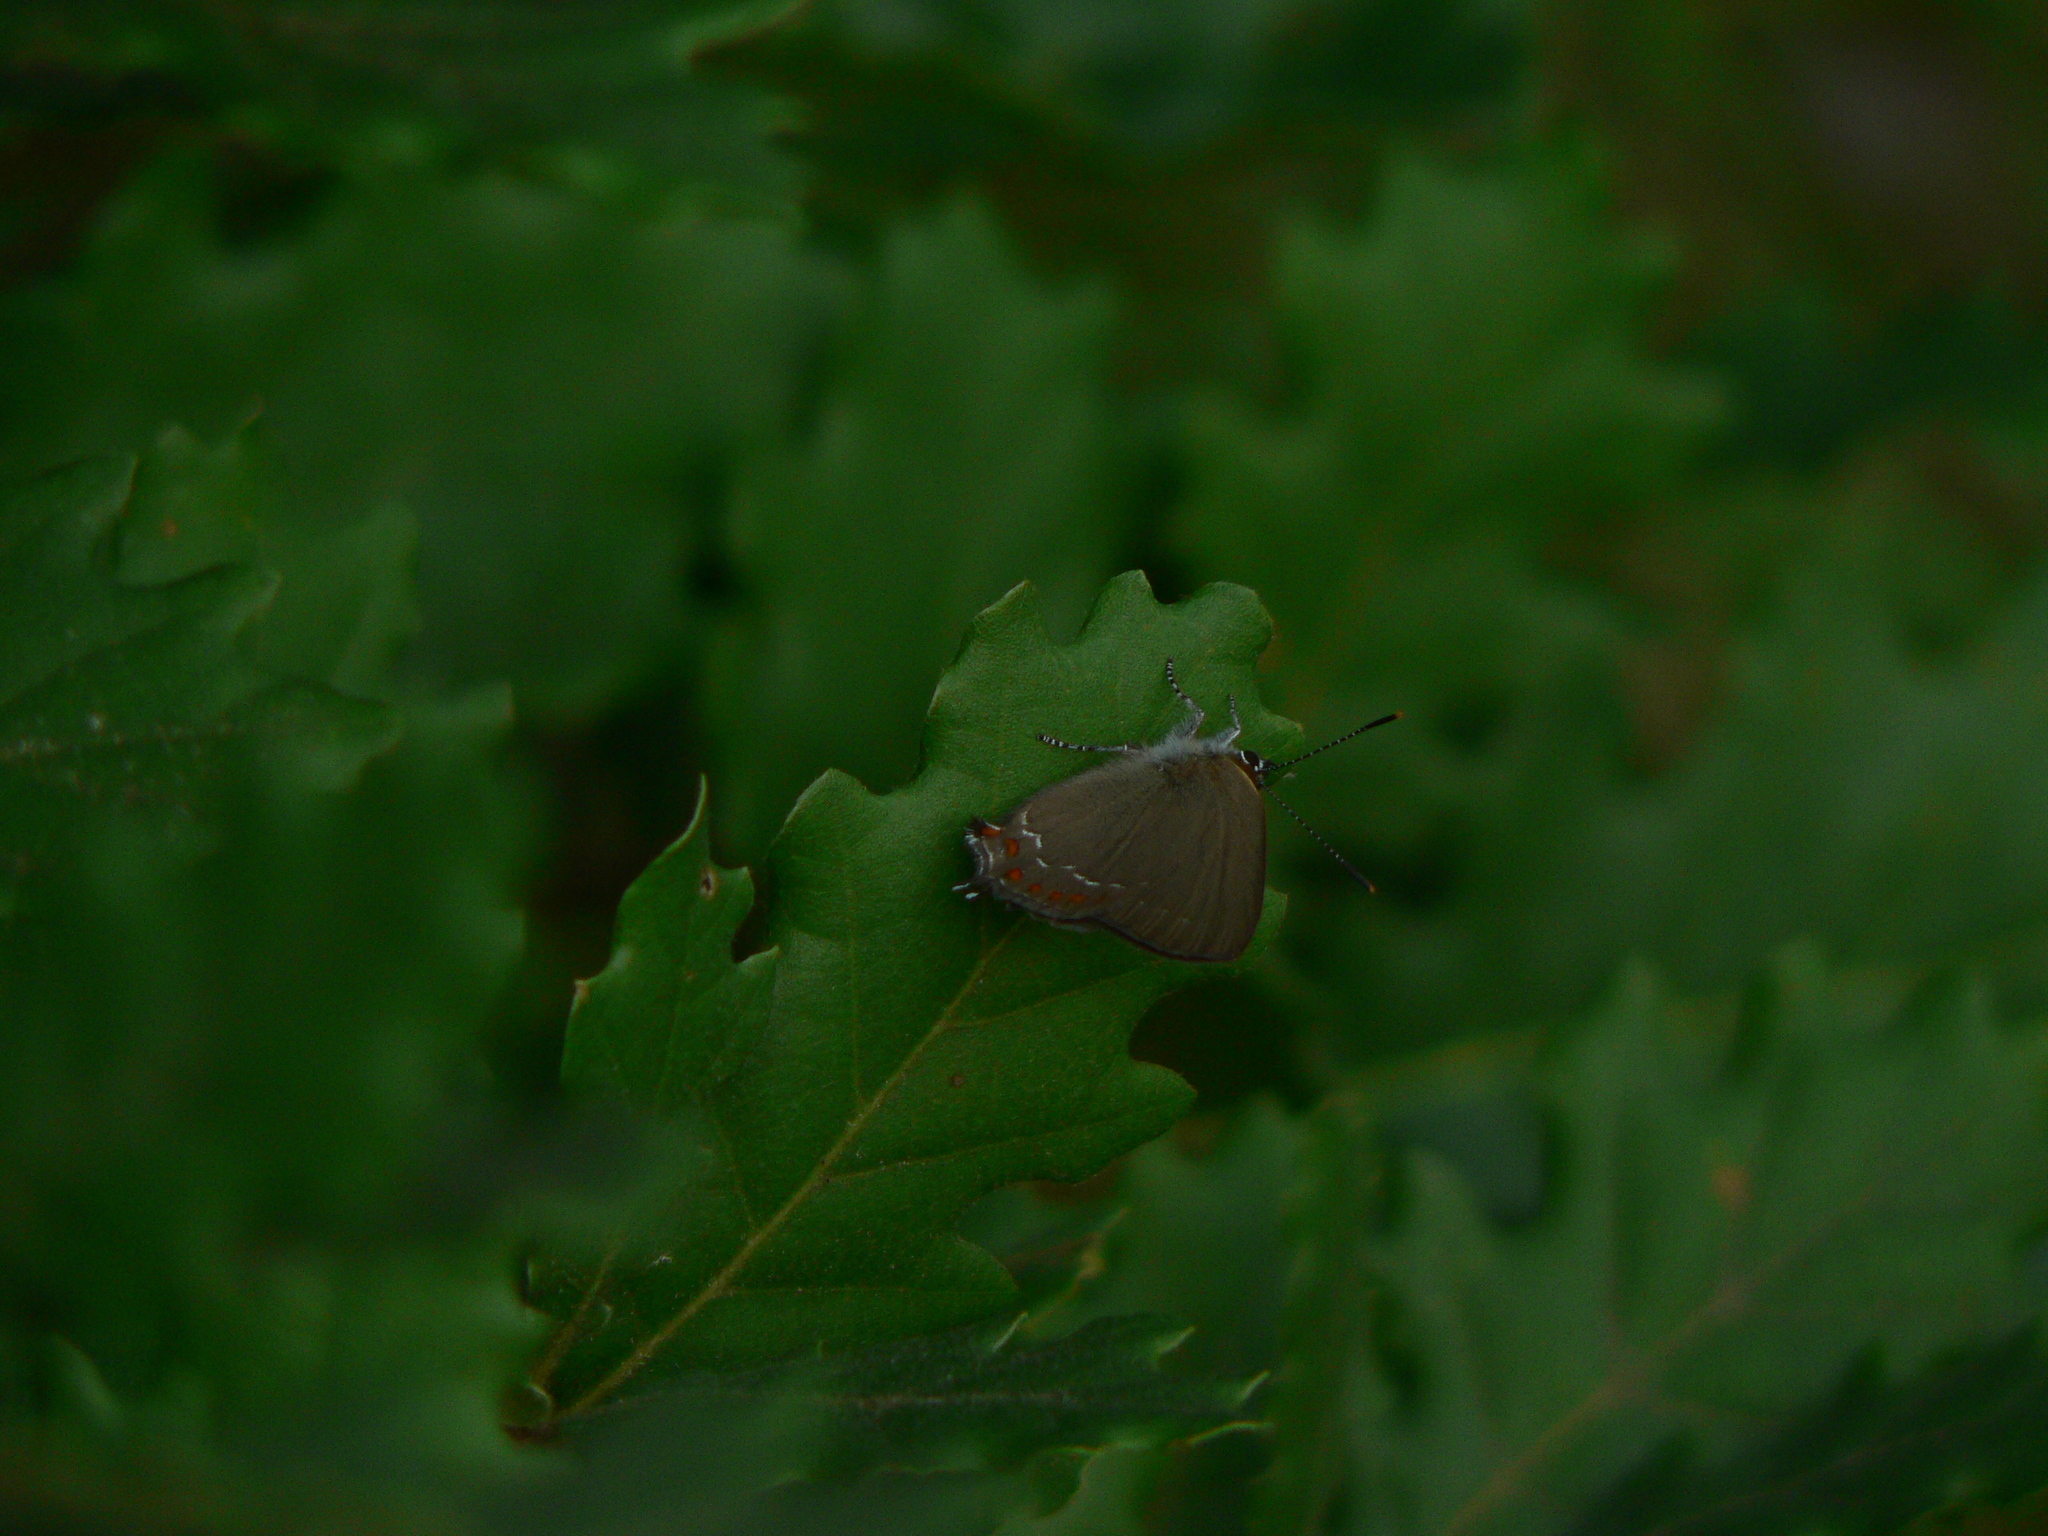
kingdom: Animalia
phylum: Arthropoda
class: Insecta
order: Lepidoptera
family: Lycaenidae
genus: Fixsenia
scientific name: Fixsenia esculi
